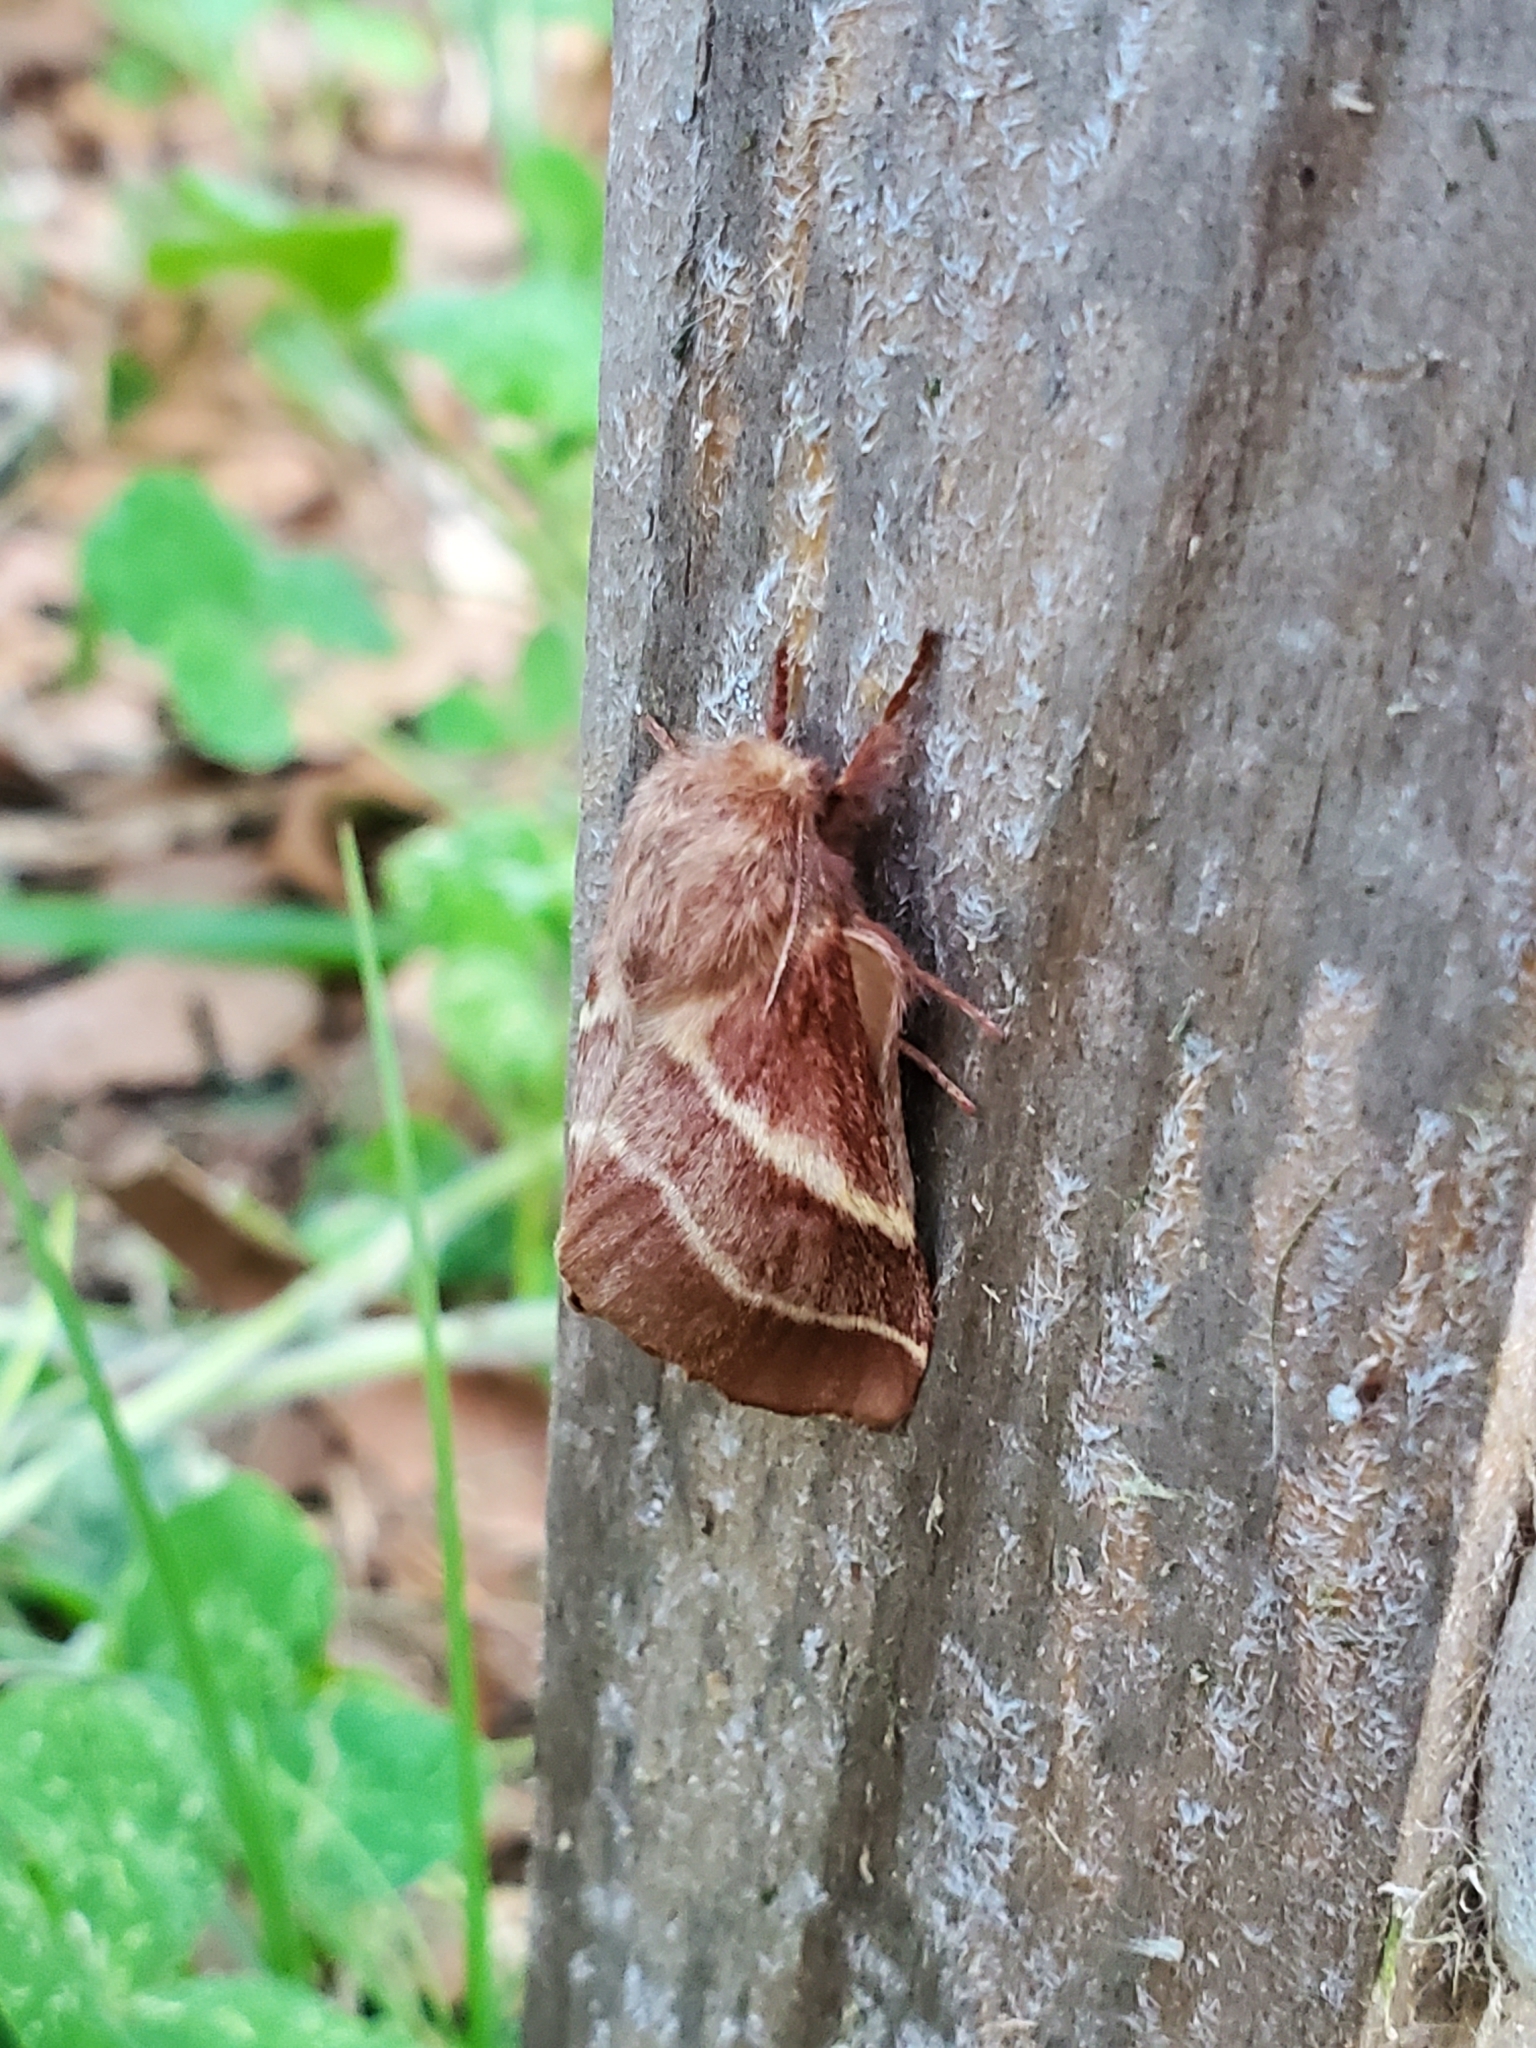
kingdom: Animalia
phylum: Arthropoda
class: Insecta
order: Lepidoptera
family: Lasiocampidae
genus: Malacosoma
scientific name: Malacosoma americana
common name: Eastern tent caterpillar moth
